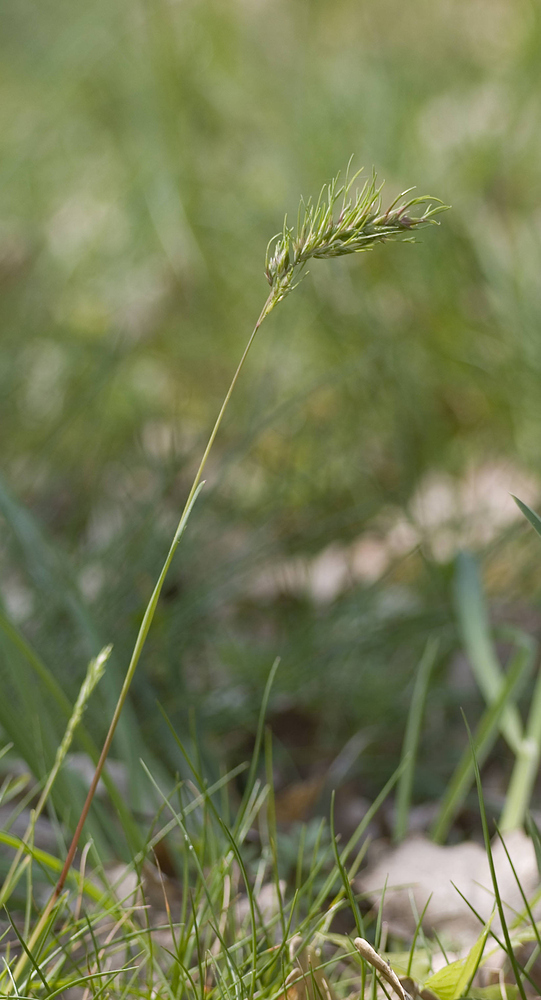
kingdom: Plantae
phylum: Tracheophyta
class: Liliopsida
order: Poales
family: Poaceae
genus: Poa
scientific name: Poa bulbosa
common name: Bulbous bluegrass
